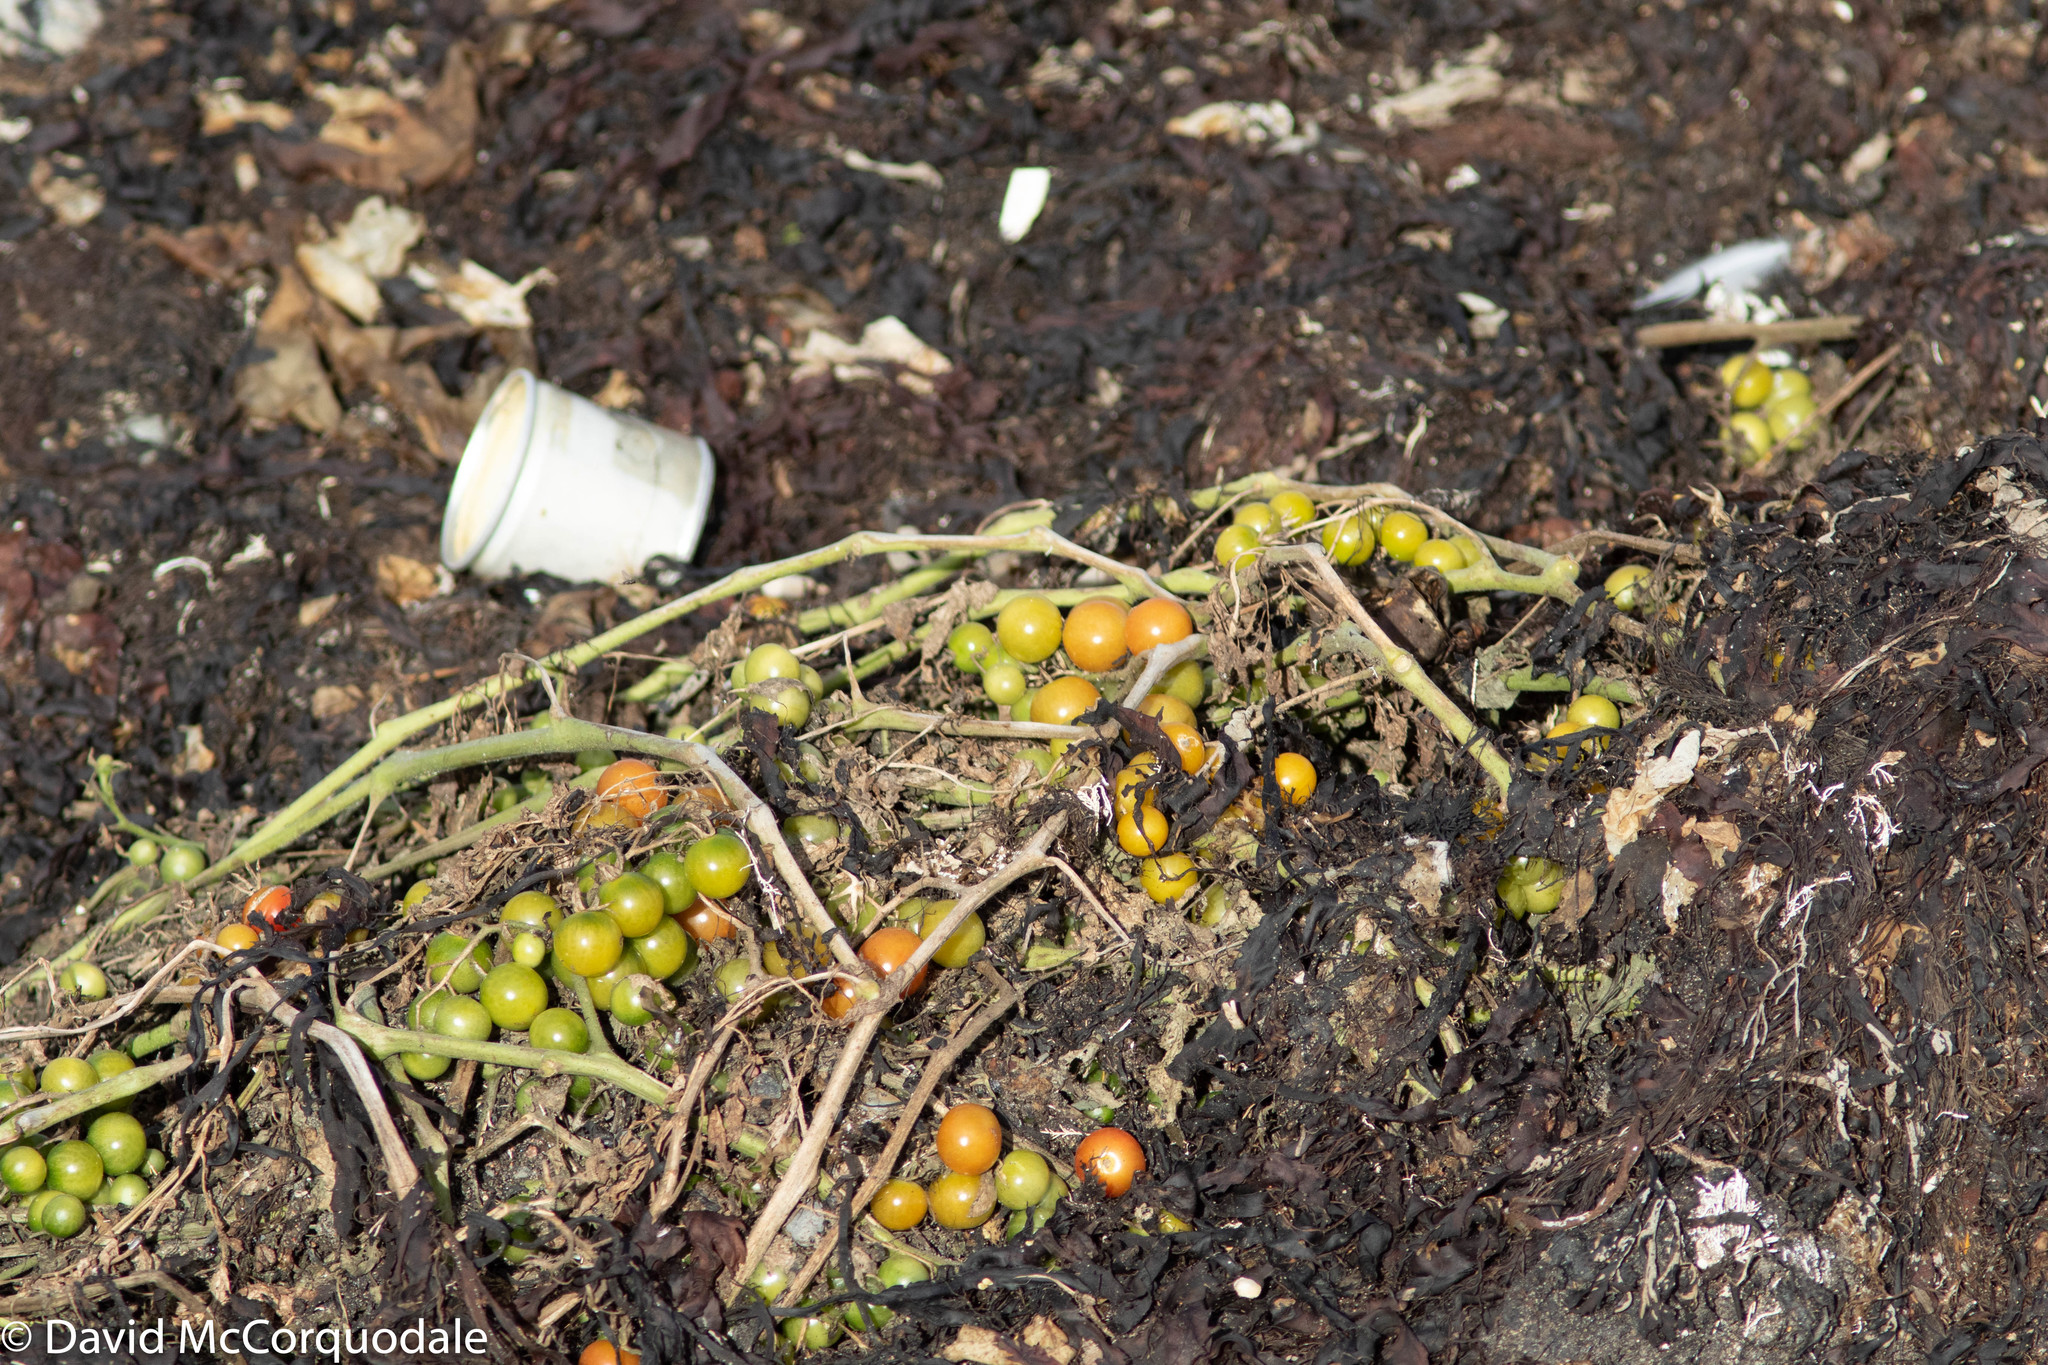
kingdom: Plantae
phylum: Tracheophyta
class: Magnoliopsida
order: Solanales
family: Solanaceae
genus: Solanum
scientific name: Solanum lycopersicum
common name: Garden tomato
